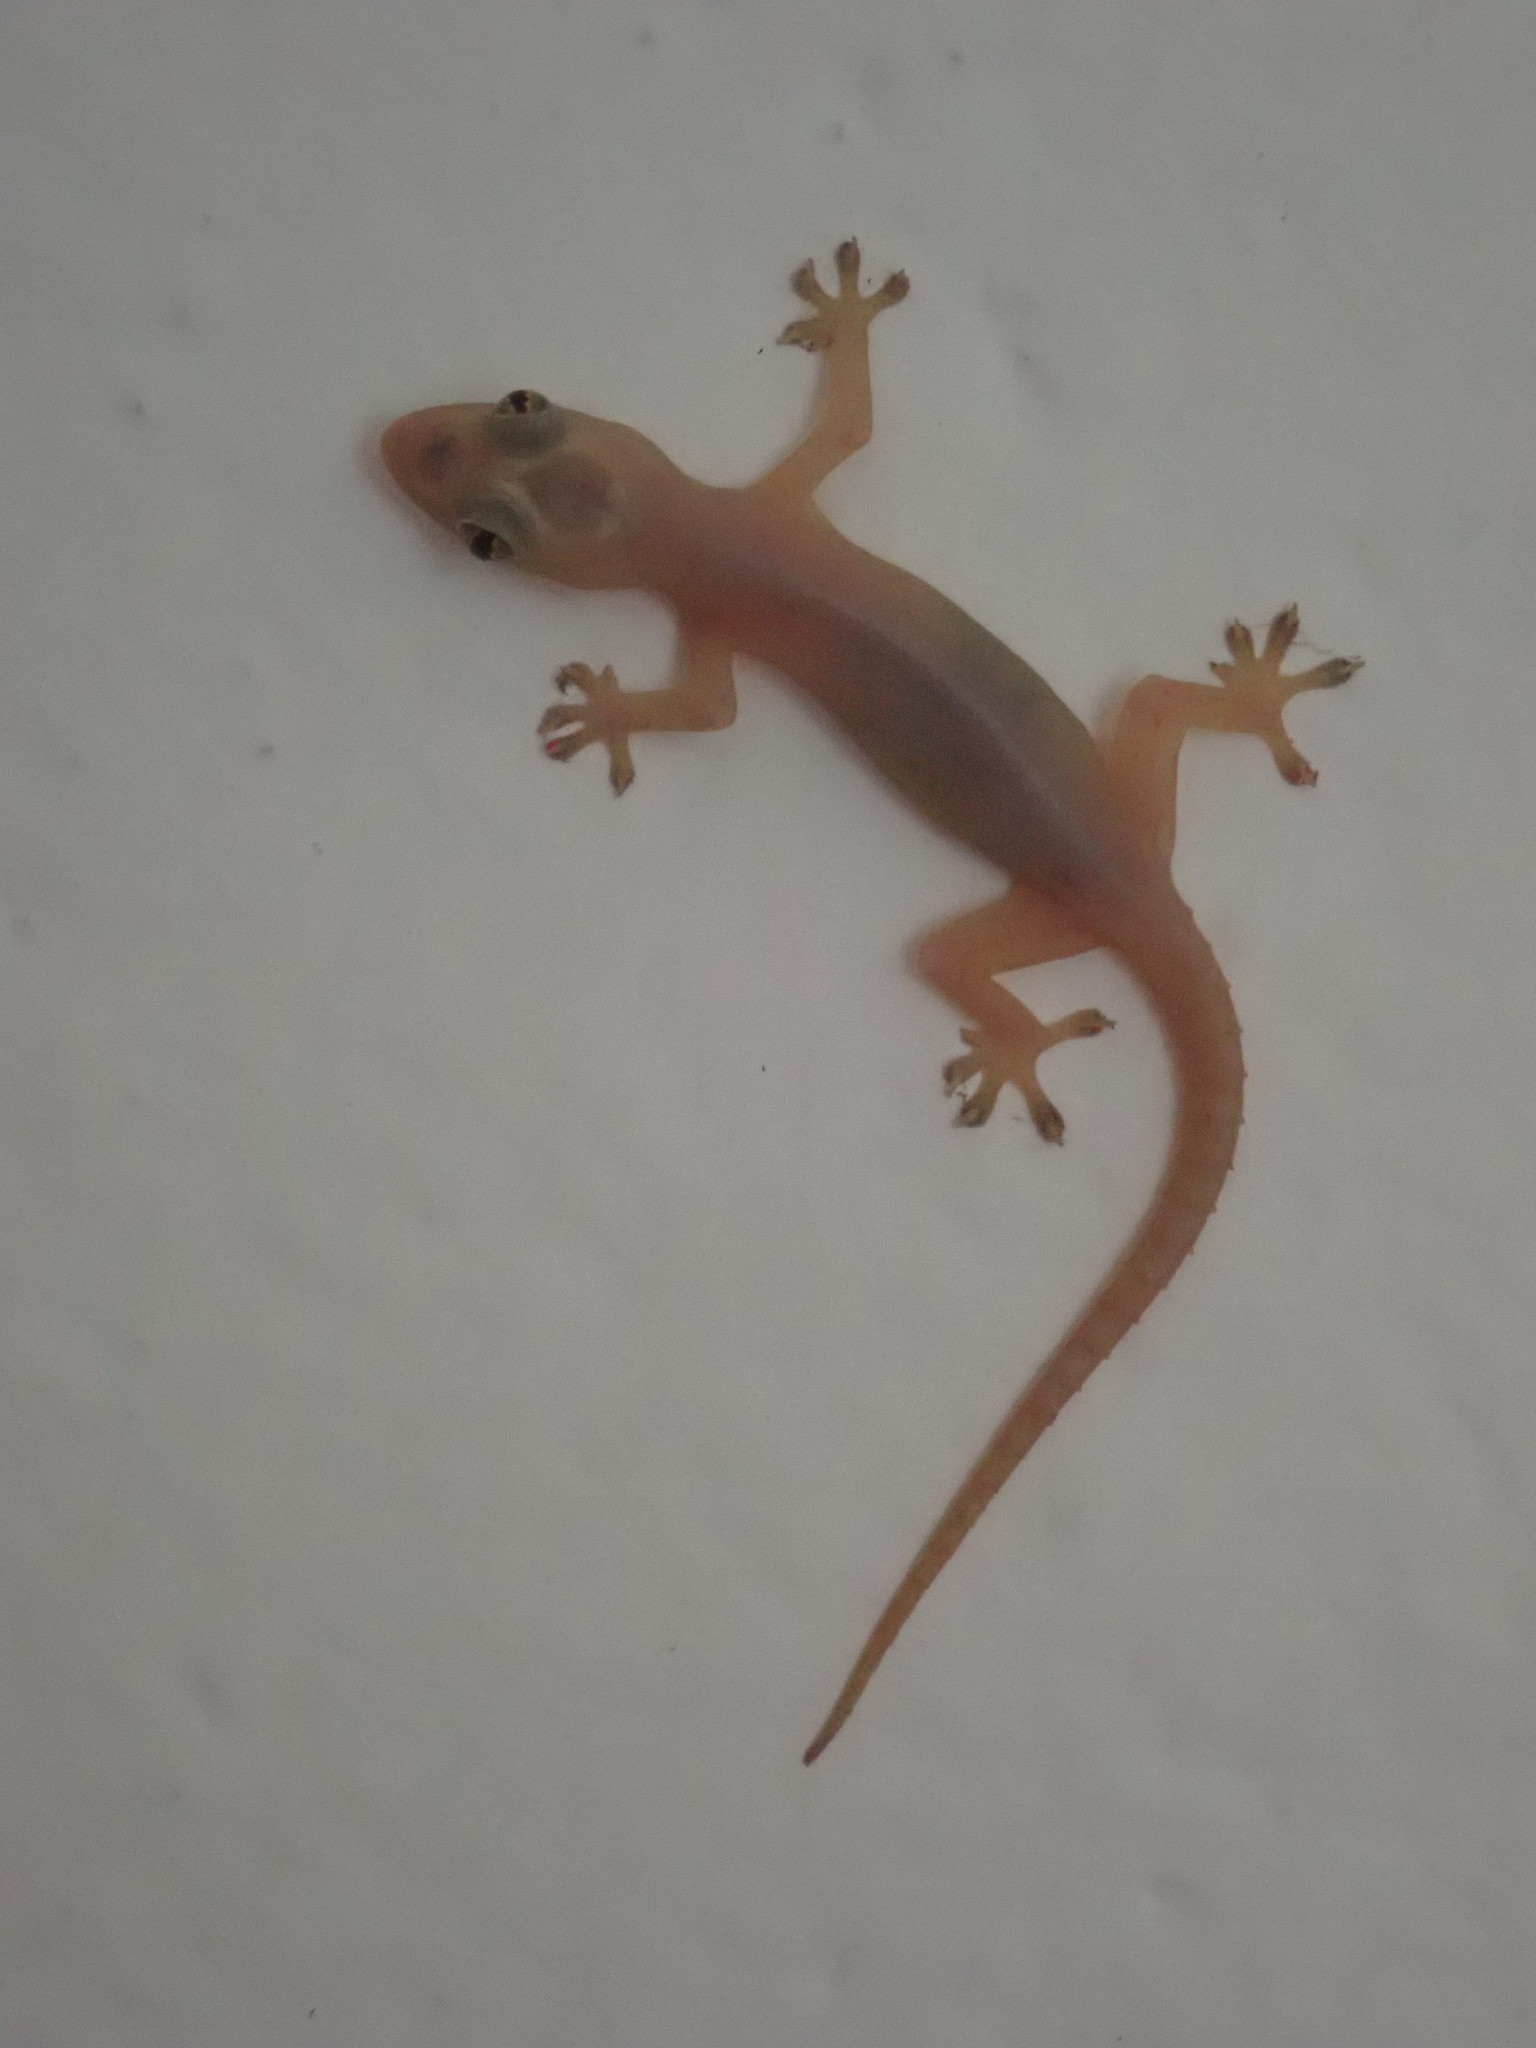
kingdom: Animalia
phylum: Chordata
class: Squamata
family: Gekkonidae
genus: Hemidactylus
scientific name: Hemidactylus frenatus
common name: Common house gecko
